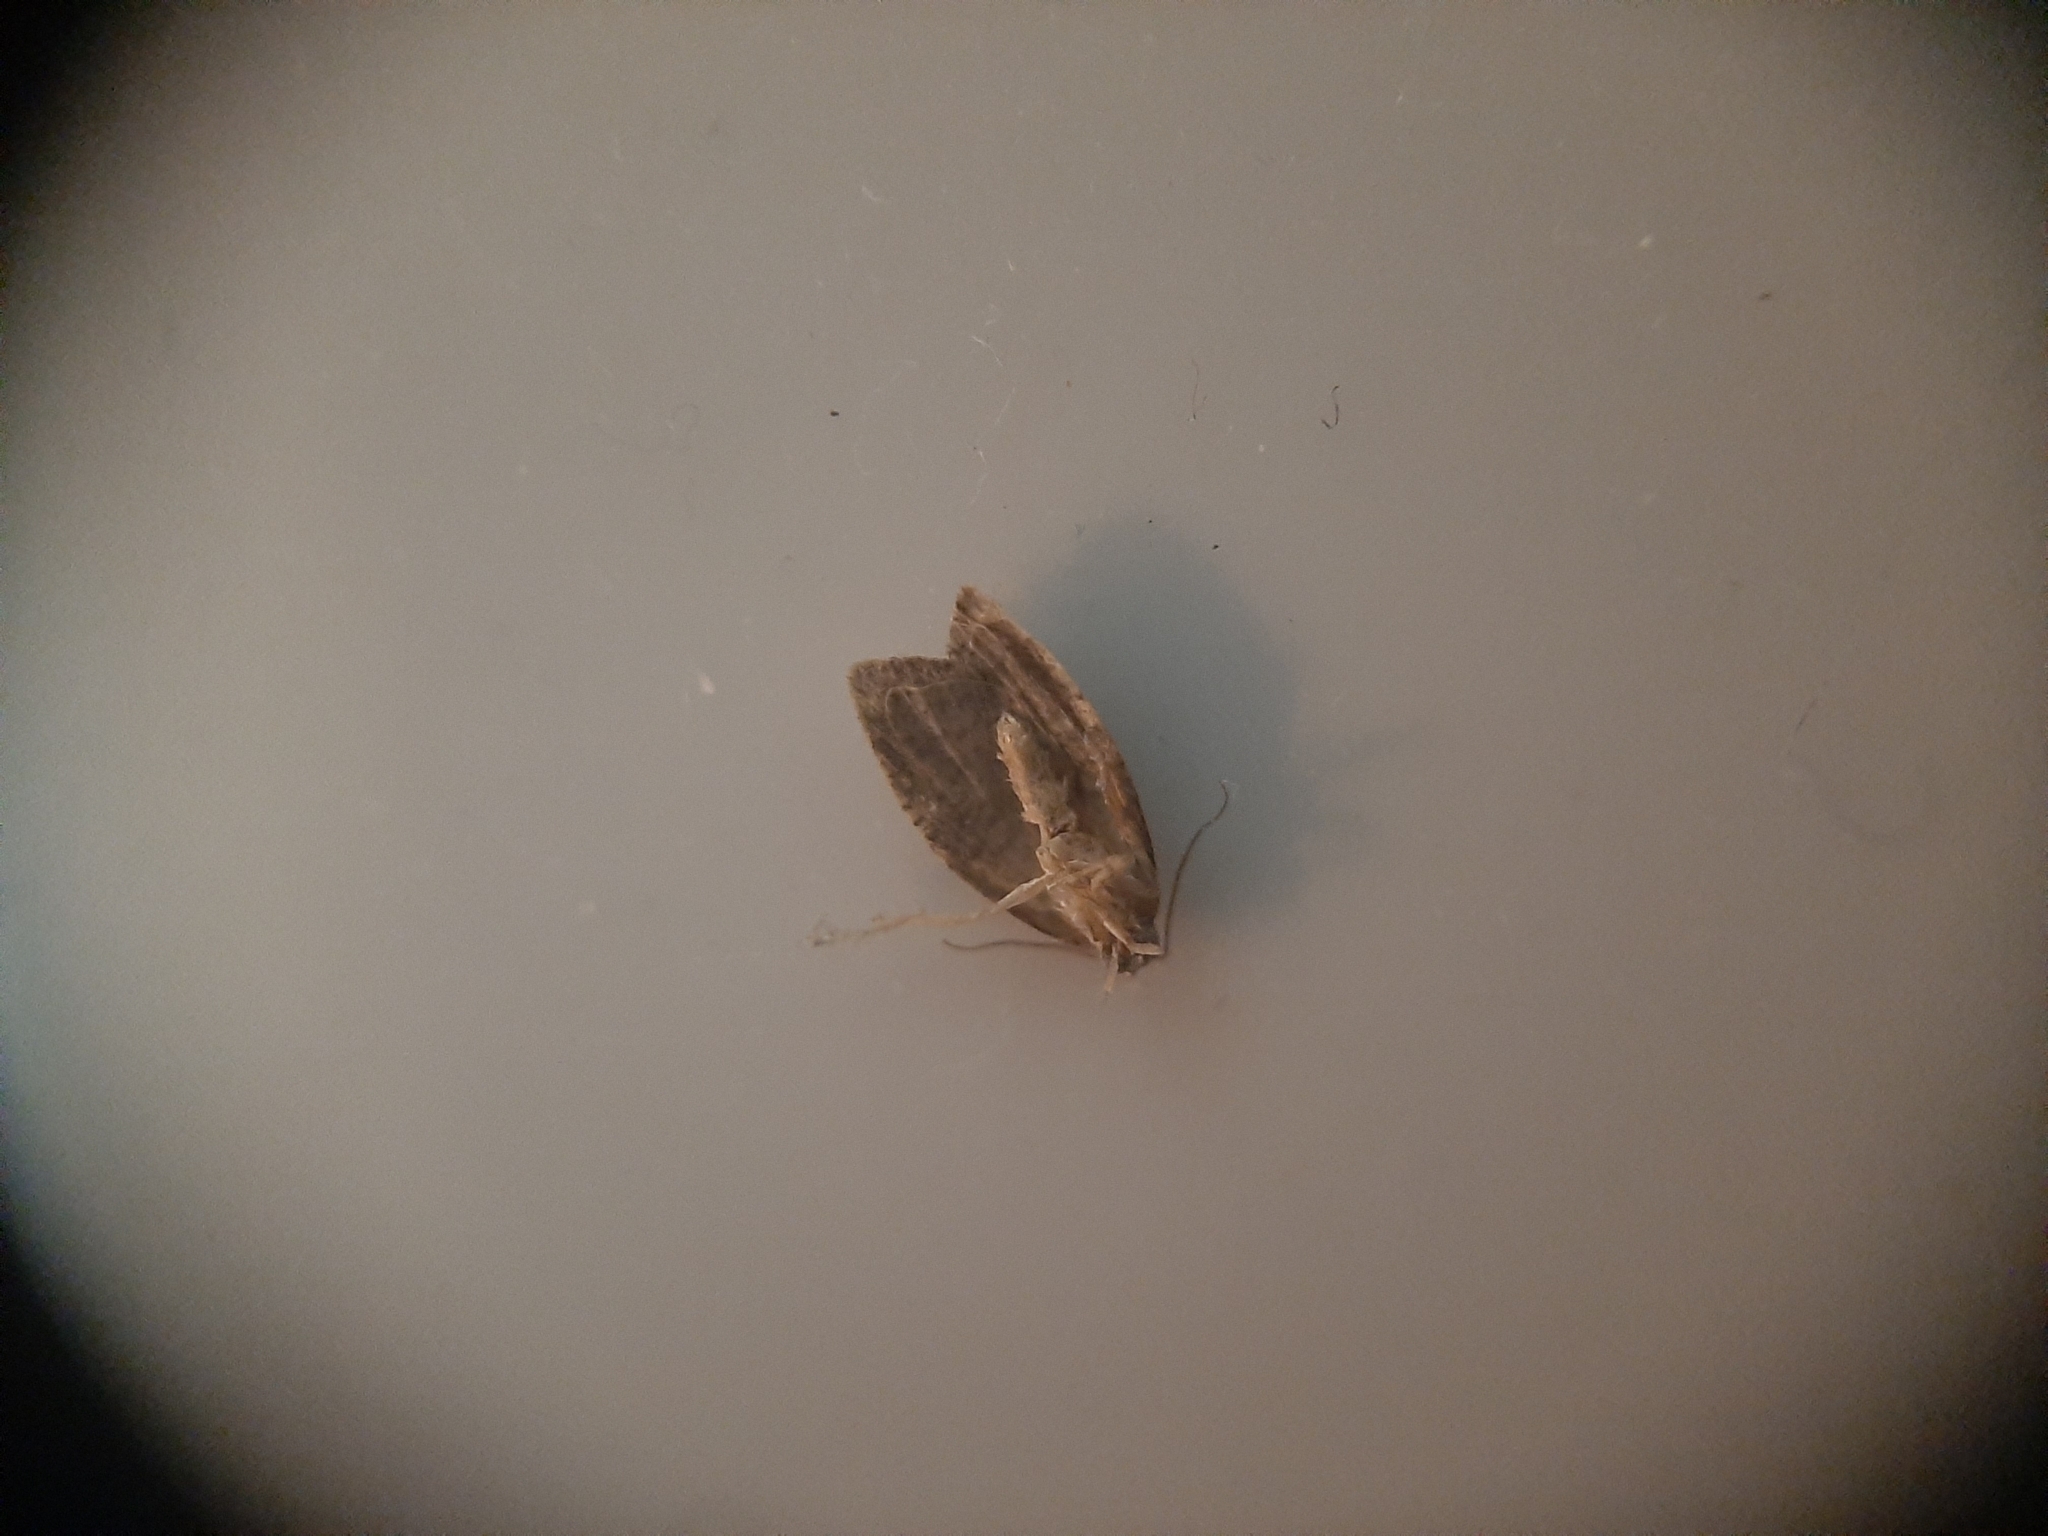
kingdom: Animalia
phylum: Arthropoda
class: Insecta
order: Lepidoptera
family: Tortricidae
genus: Capua
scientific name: Capua intractana
